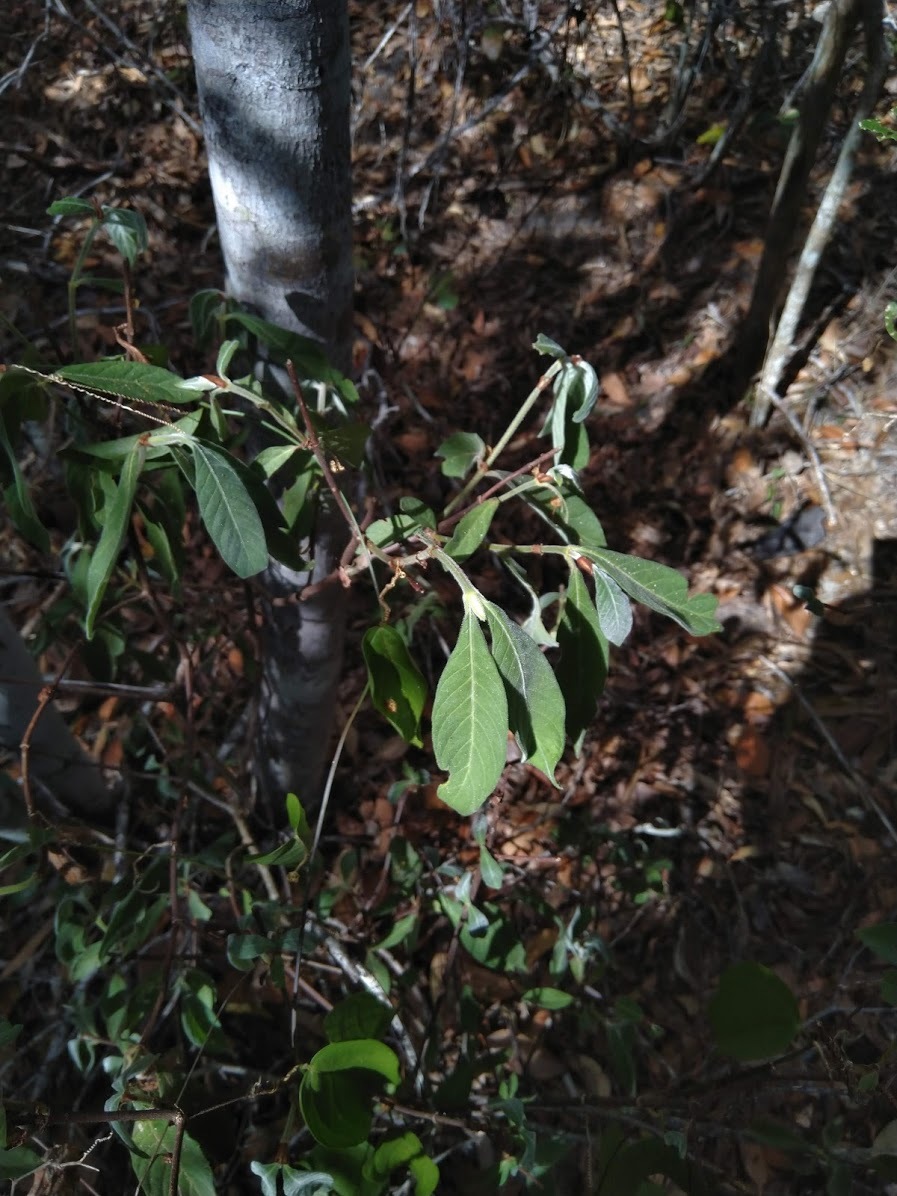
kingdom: Plantae
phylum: Tracheophyta
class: Magnoliopsida
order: Gentianales
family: Rubiaceae
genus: Psychotria
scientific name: Psychotria loniceroides
